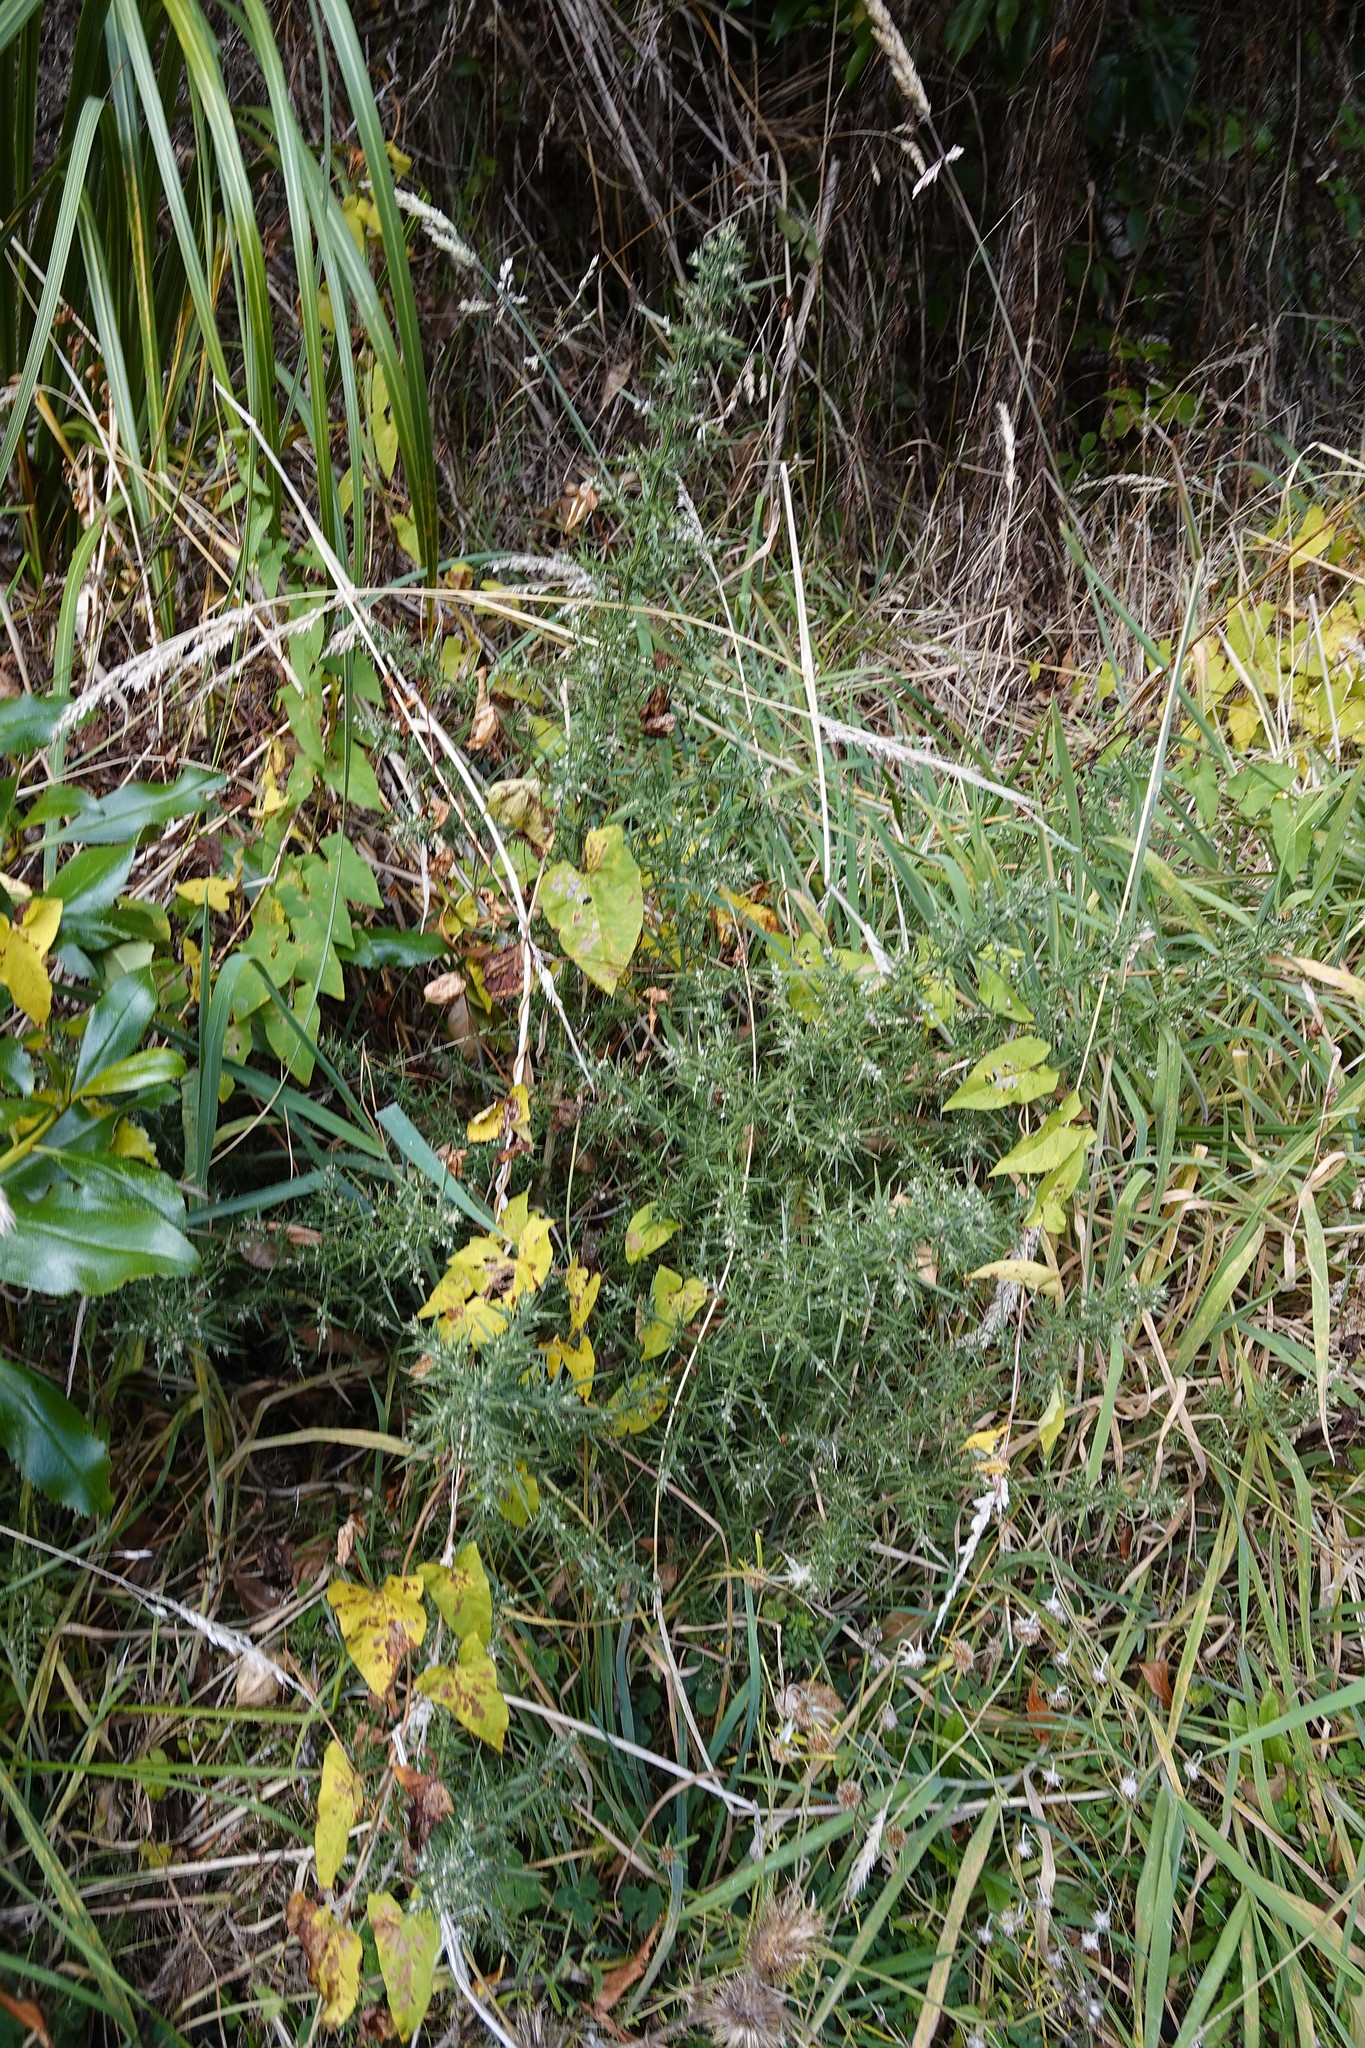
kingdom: Plantae
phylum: Tracheophyta
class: Magnoliopsida
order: Fabales
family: Fabaceae
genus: Ulex
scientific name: Ulex europaeus
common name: Common gorse
